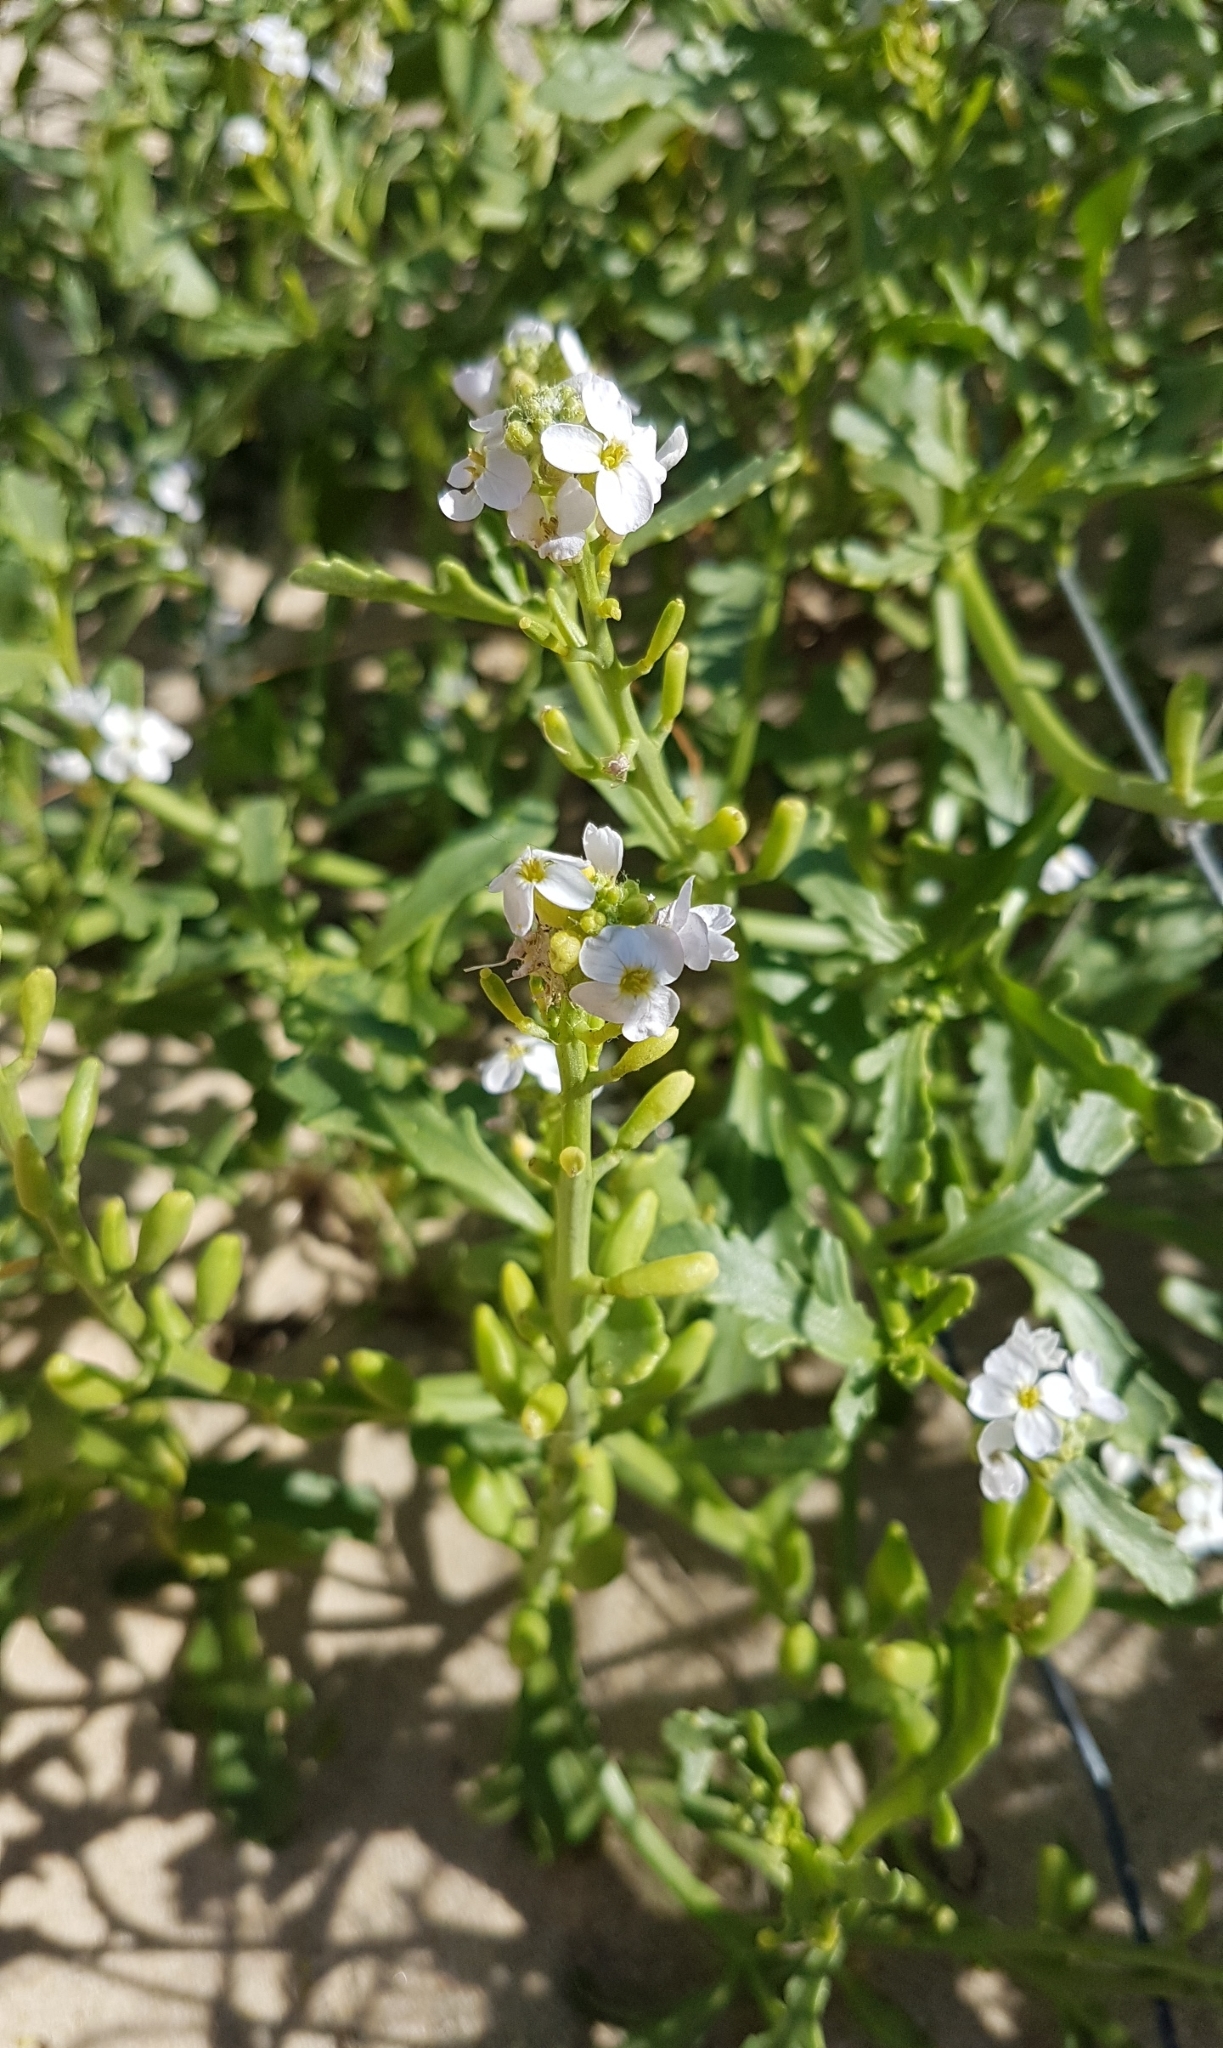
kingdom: Plantae
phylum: Tracheophyta
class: Magnoliopsida
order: Brassicales
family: Brassicaceae
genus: Cakile
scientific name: Cakile maritima
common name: Sea rocket
